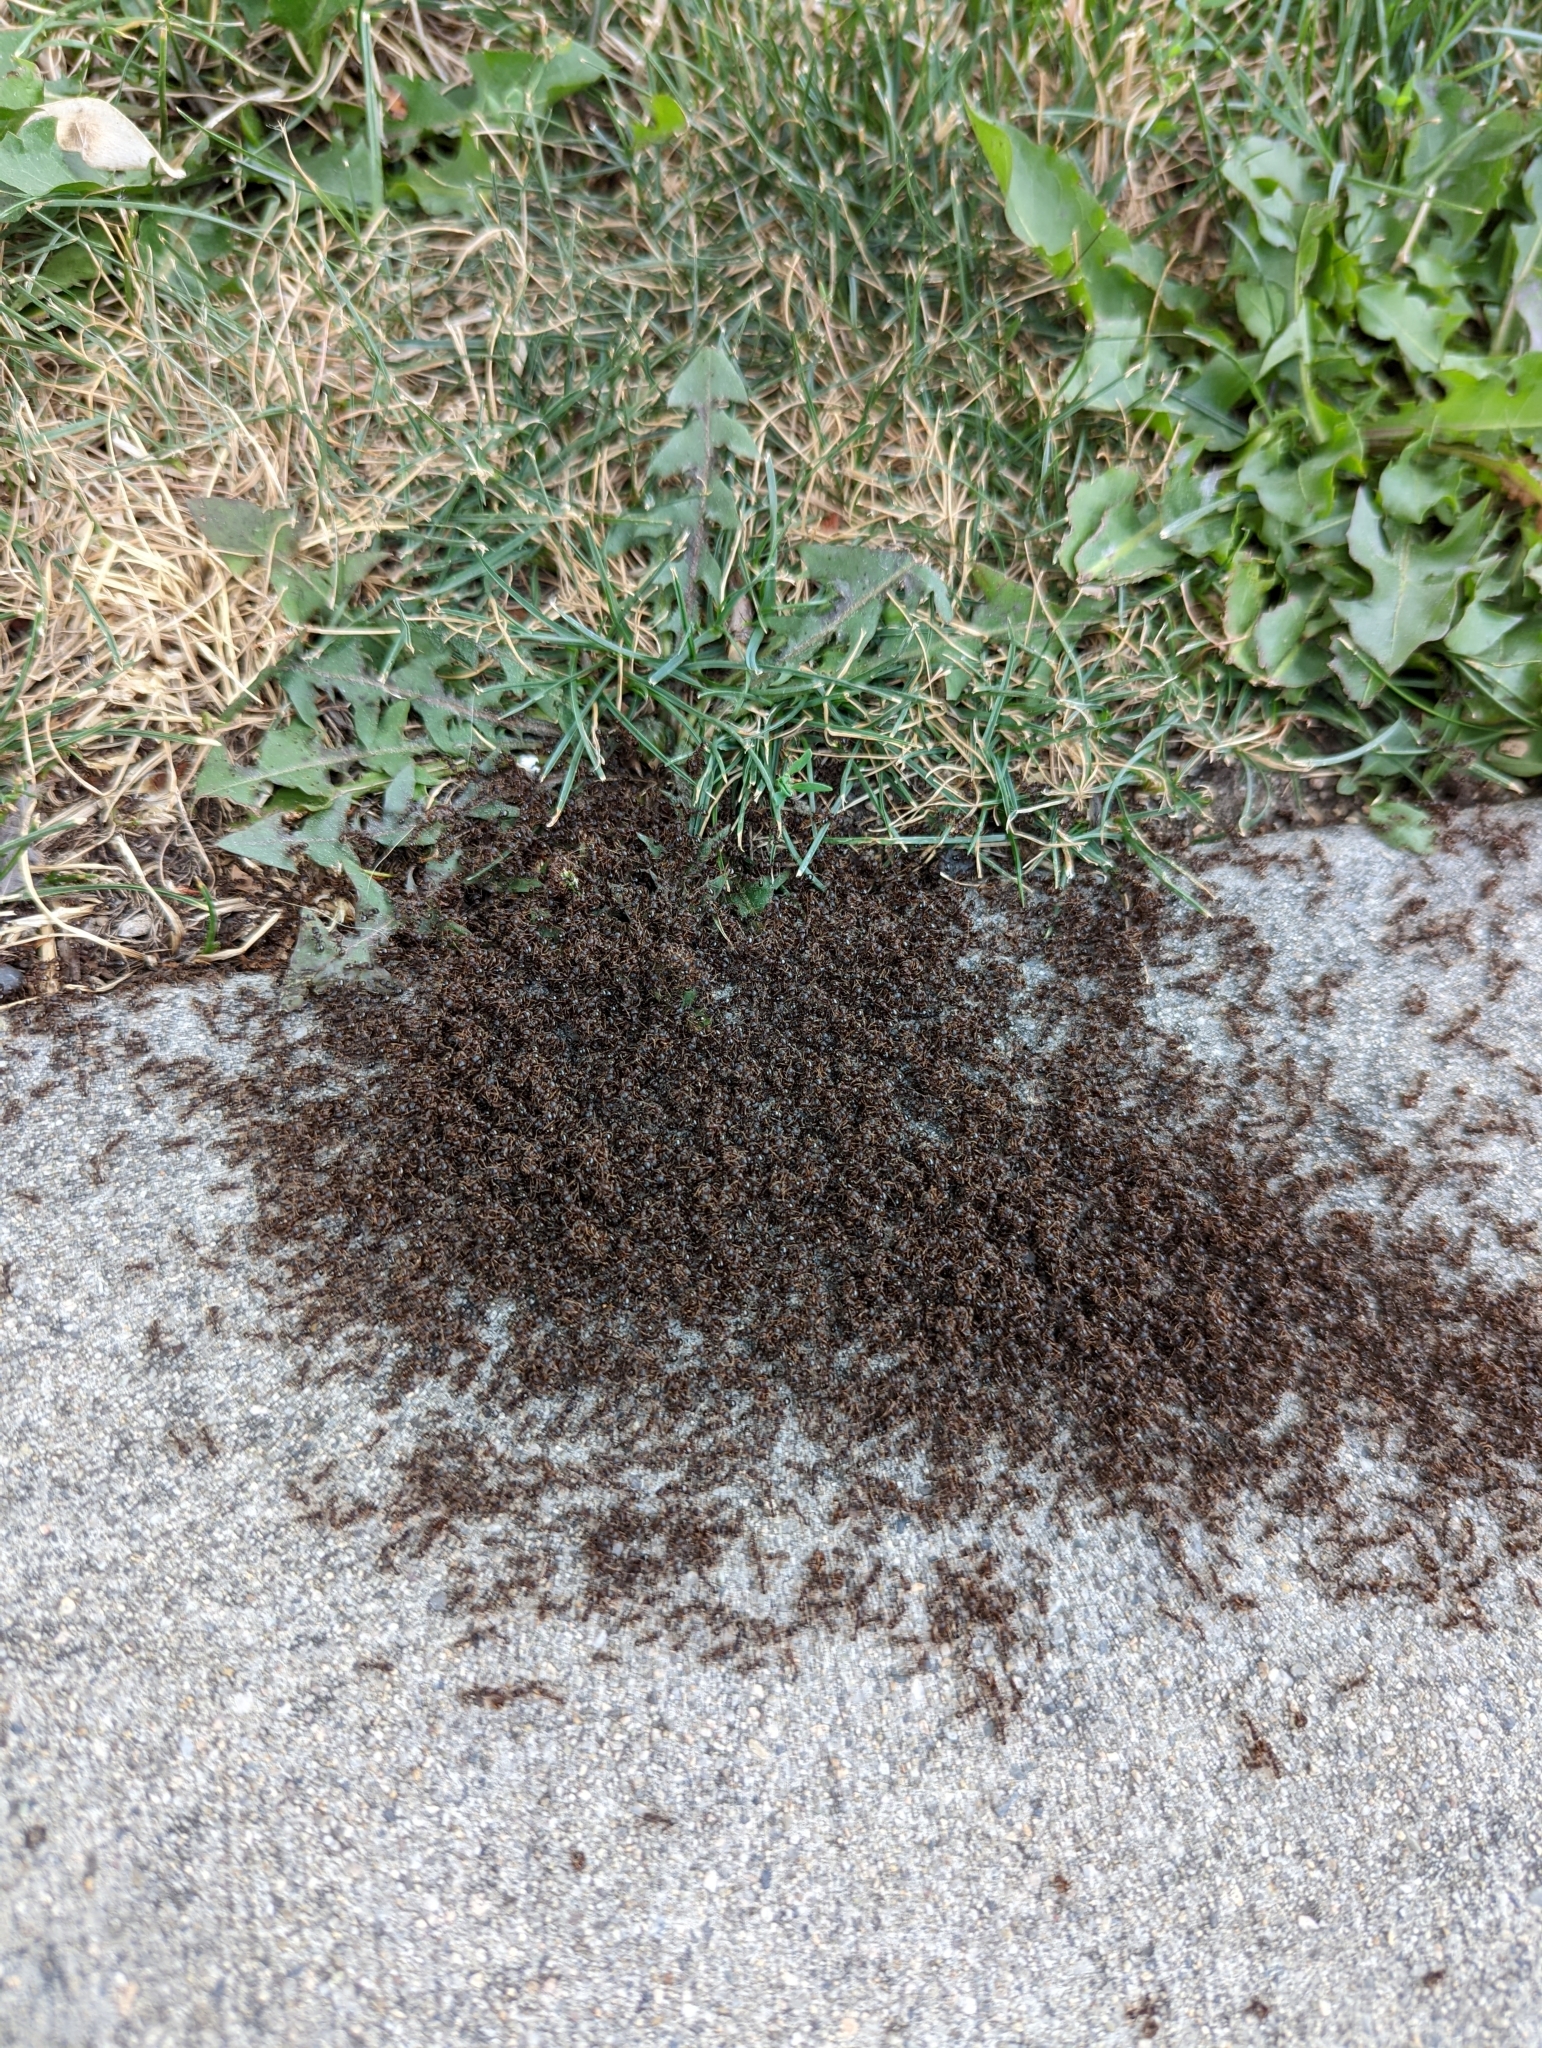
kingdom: Animalia
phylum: Arthropoda
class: Insecta
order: Hymenoptera
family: Formicidae
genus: Tetramorium
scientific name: Tetramorium immigrans
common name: Pavement ant
